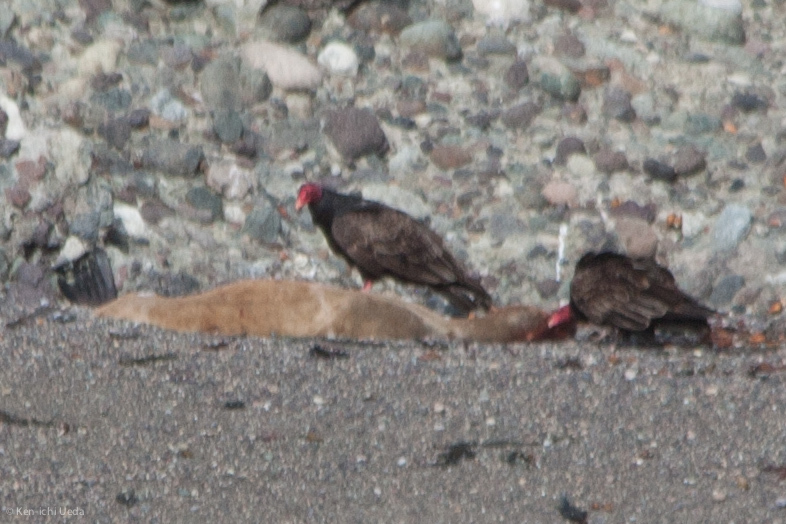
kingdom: Animalia
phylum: Chordata
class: Aves
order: Accipitriformes
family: Cathartidae
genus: Cathartes
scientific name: Cathartes aura
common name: Turkey vulture
